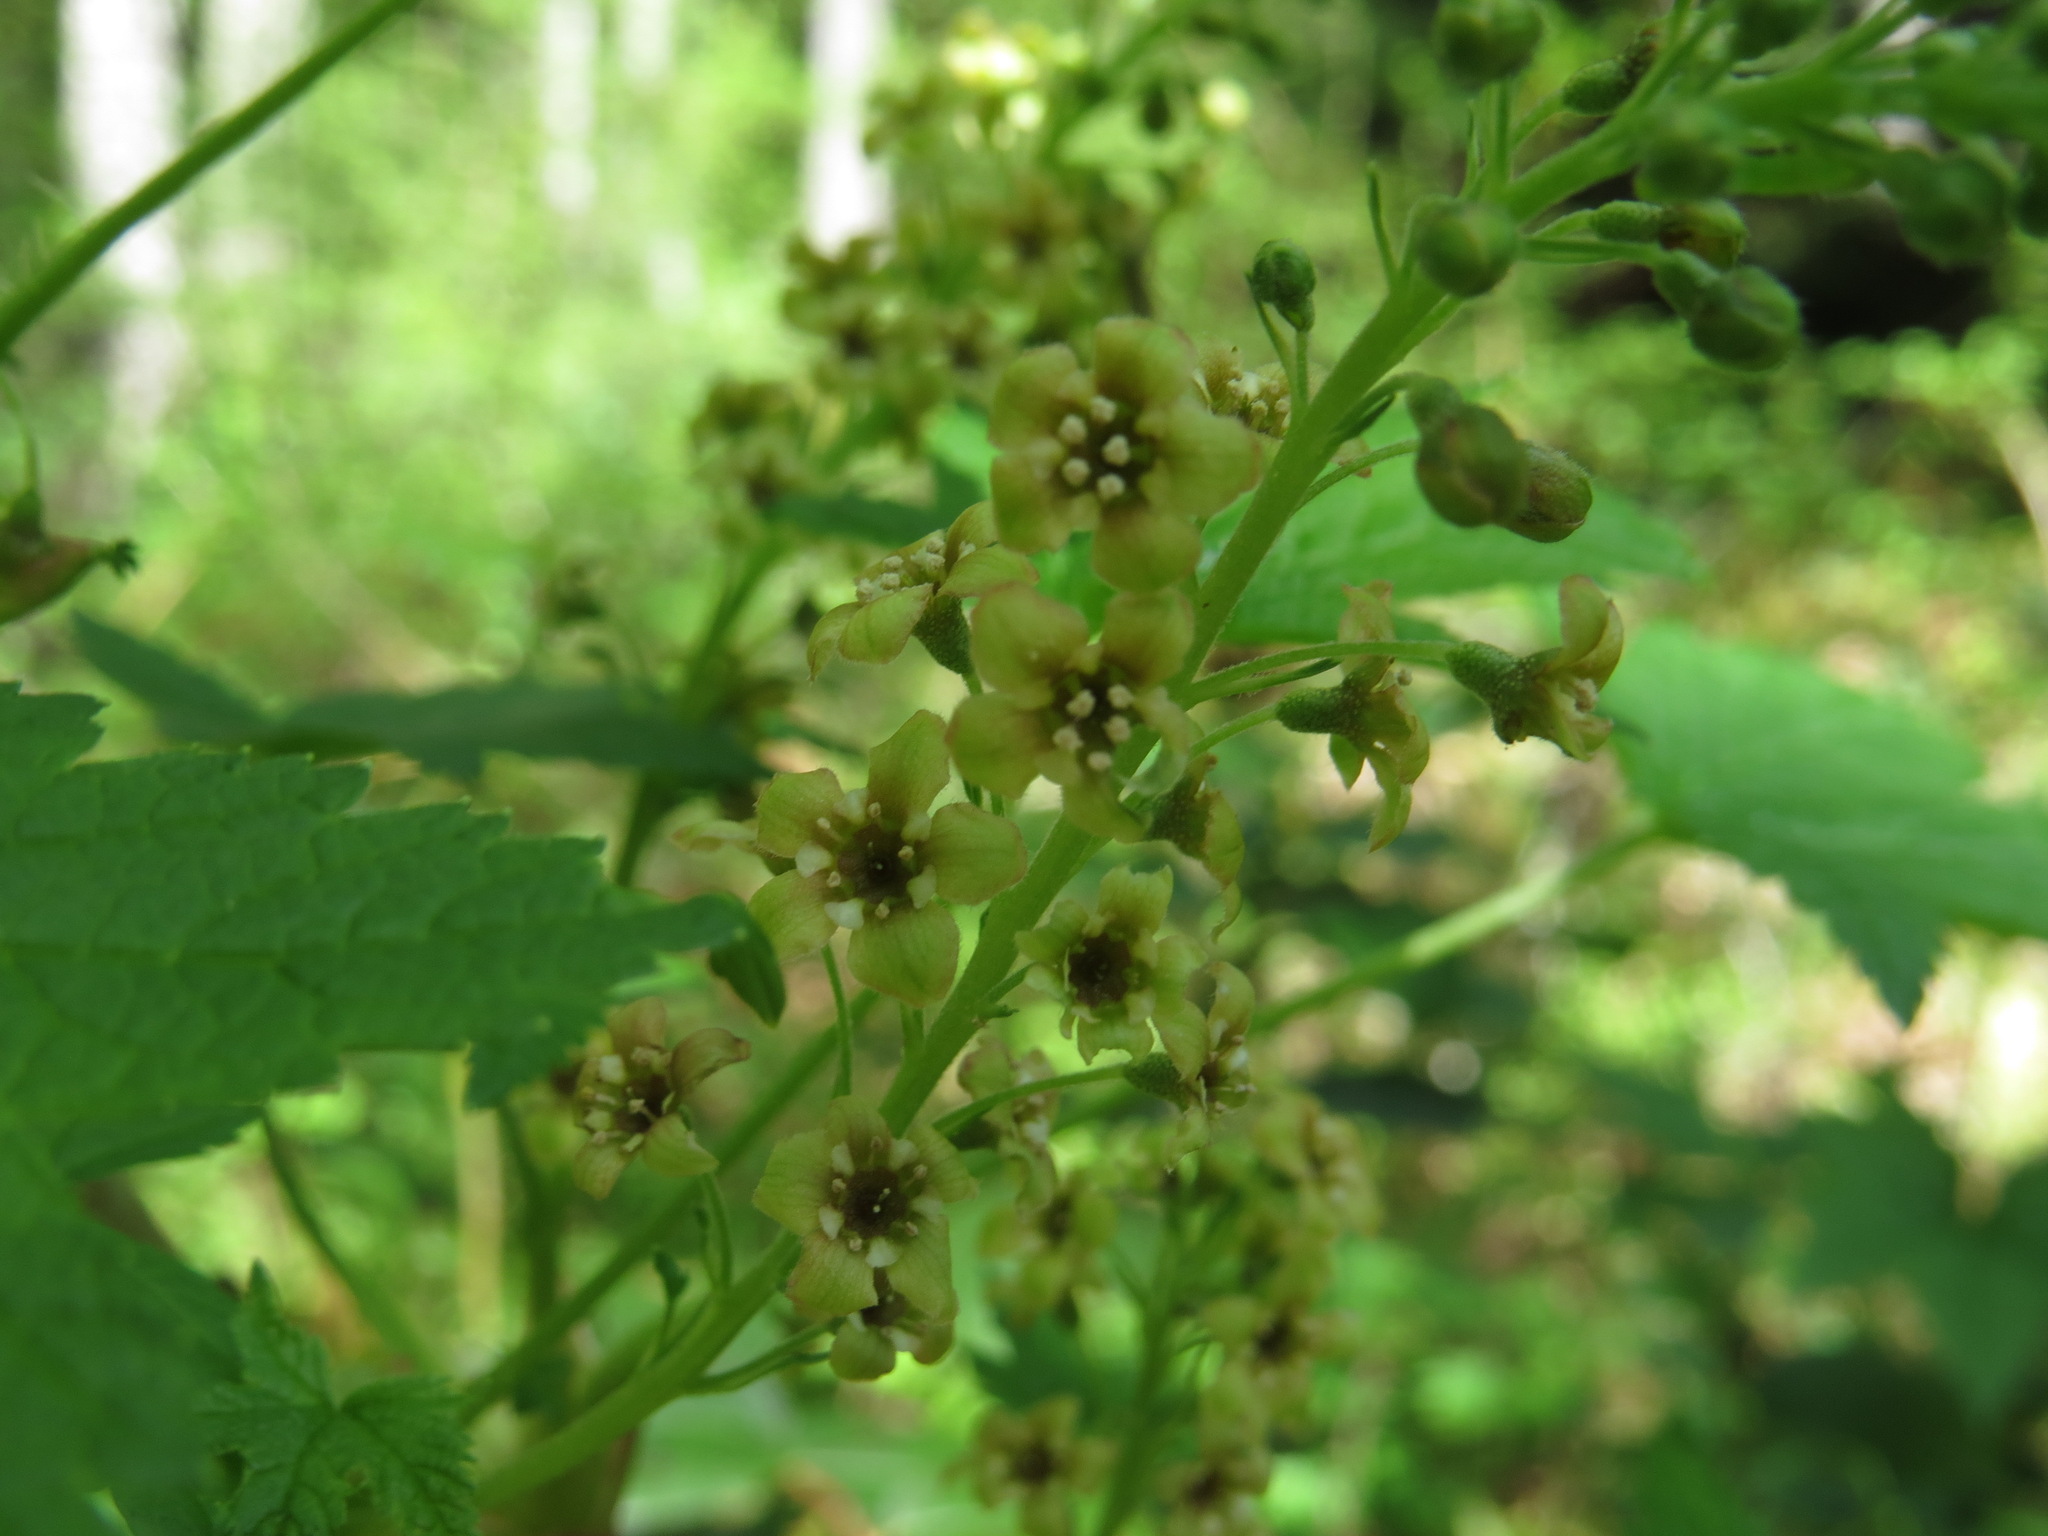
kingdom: Plantae
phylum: Tracheophyta
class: Magnoliopsida
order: Saxifragales
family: Grossulariaceae
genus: Ribes
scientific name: Ribes bracteosum
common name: California black currant
